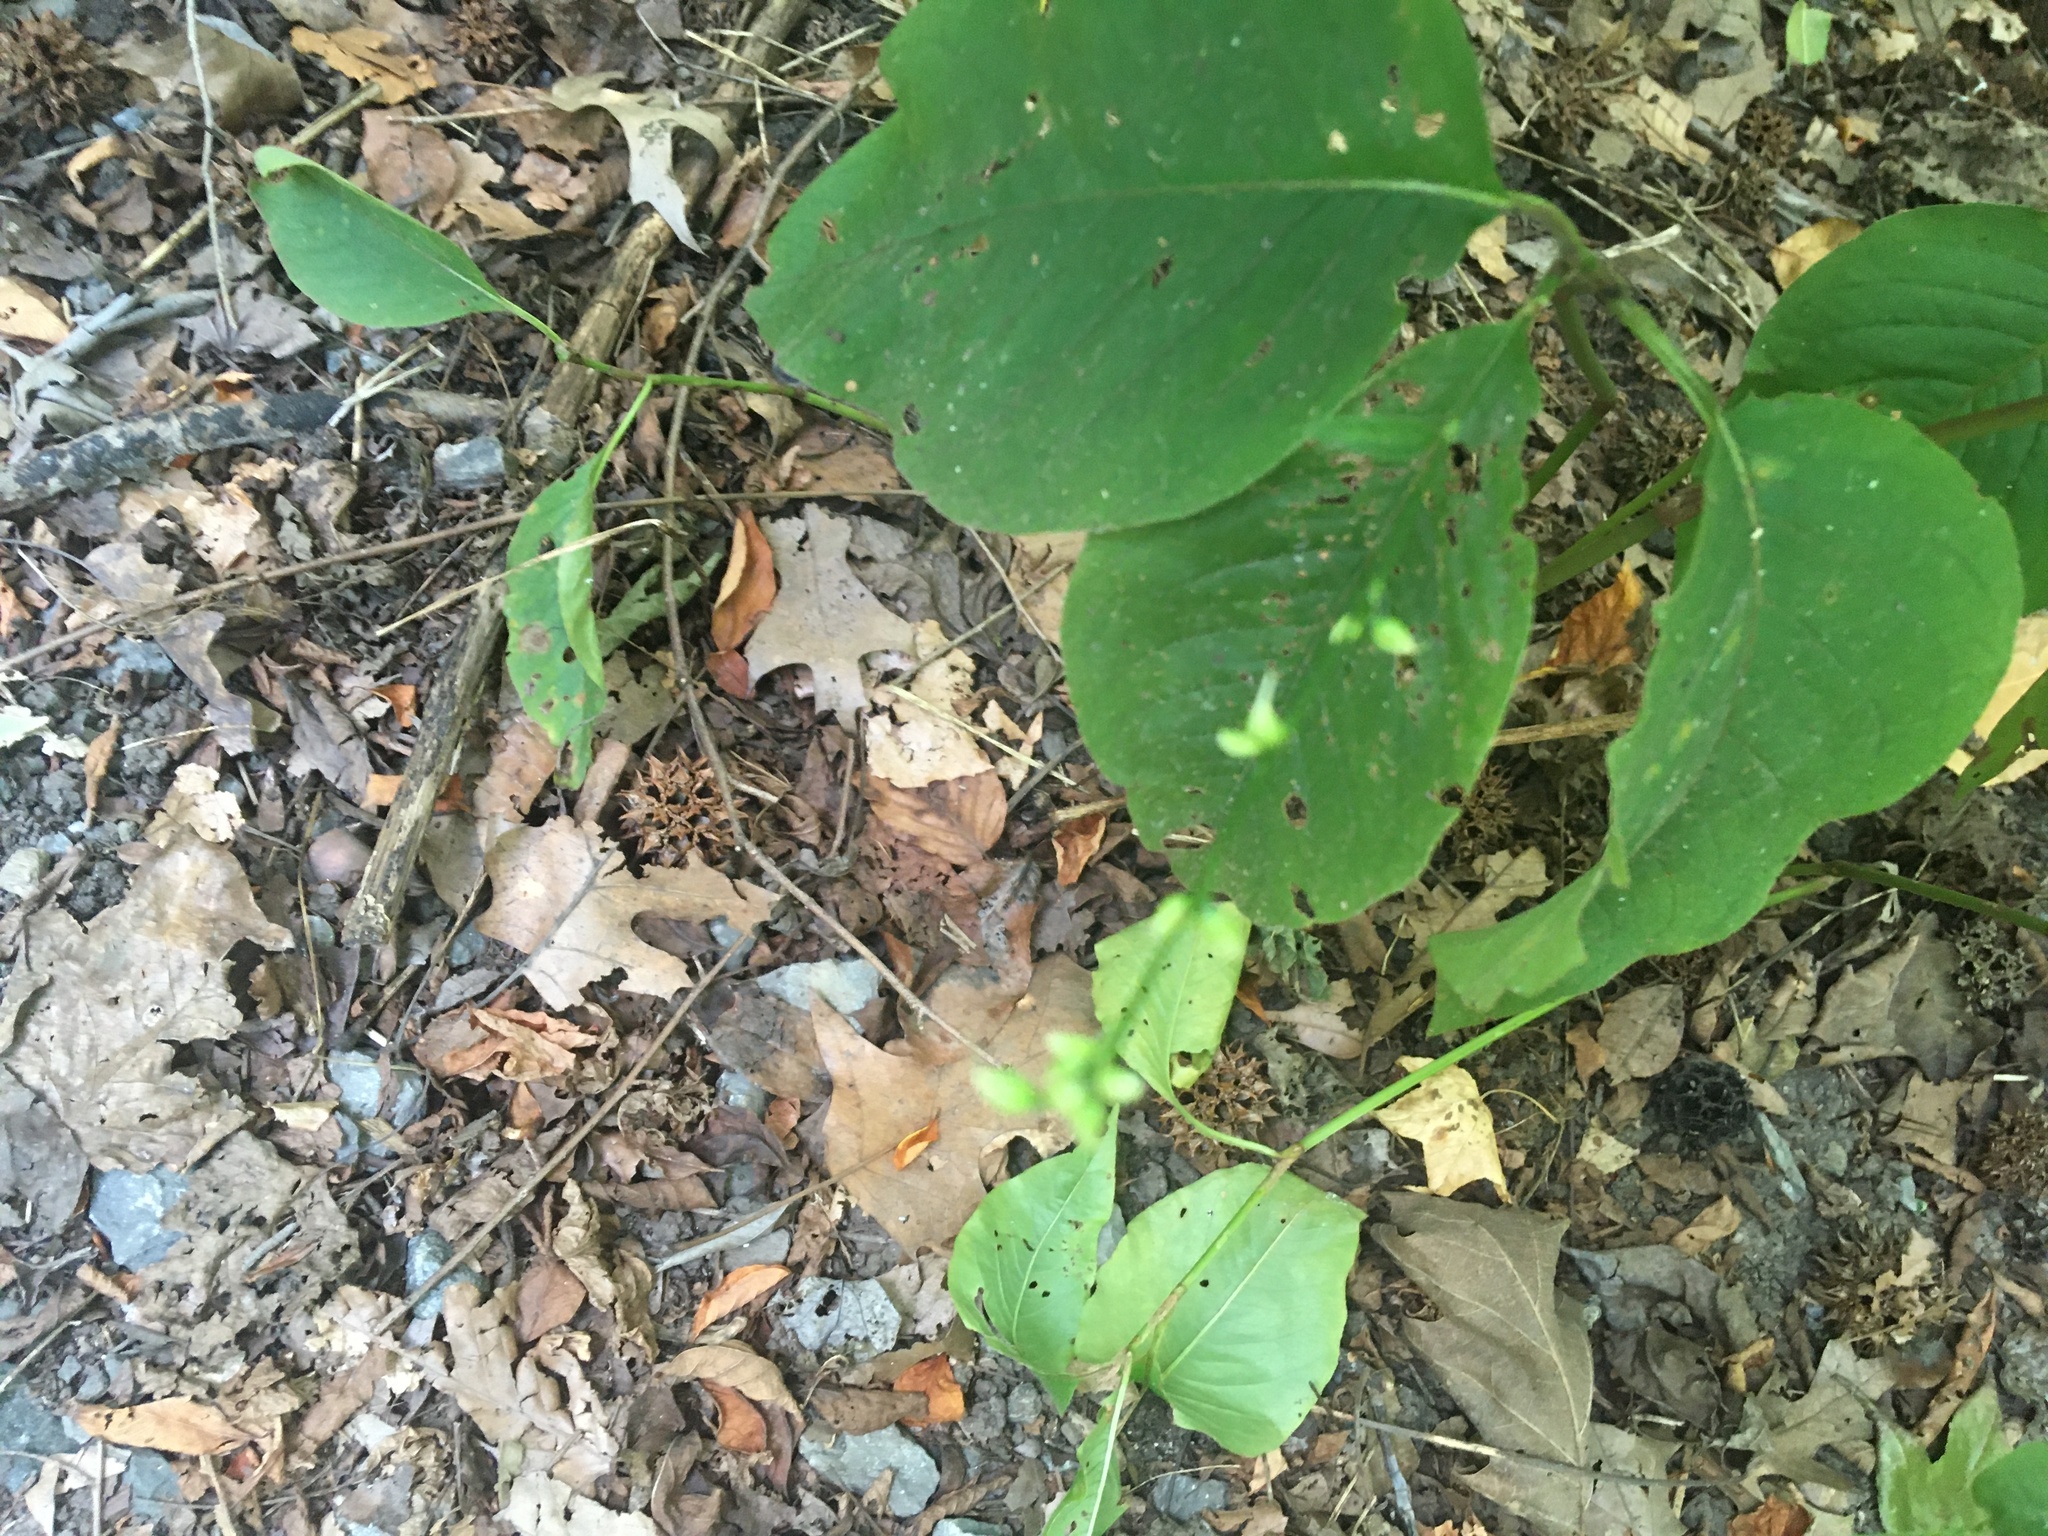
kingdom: Plantae
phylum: Tracheophyta
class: Magnoliopsida
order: Caryophyllales
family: Polygonaceae
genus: Persicaria
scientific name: Persicaria virginiana
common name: Jumpseed
